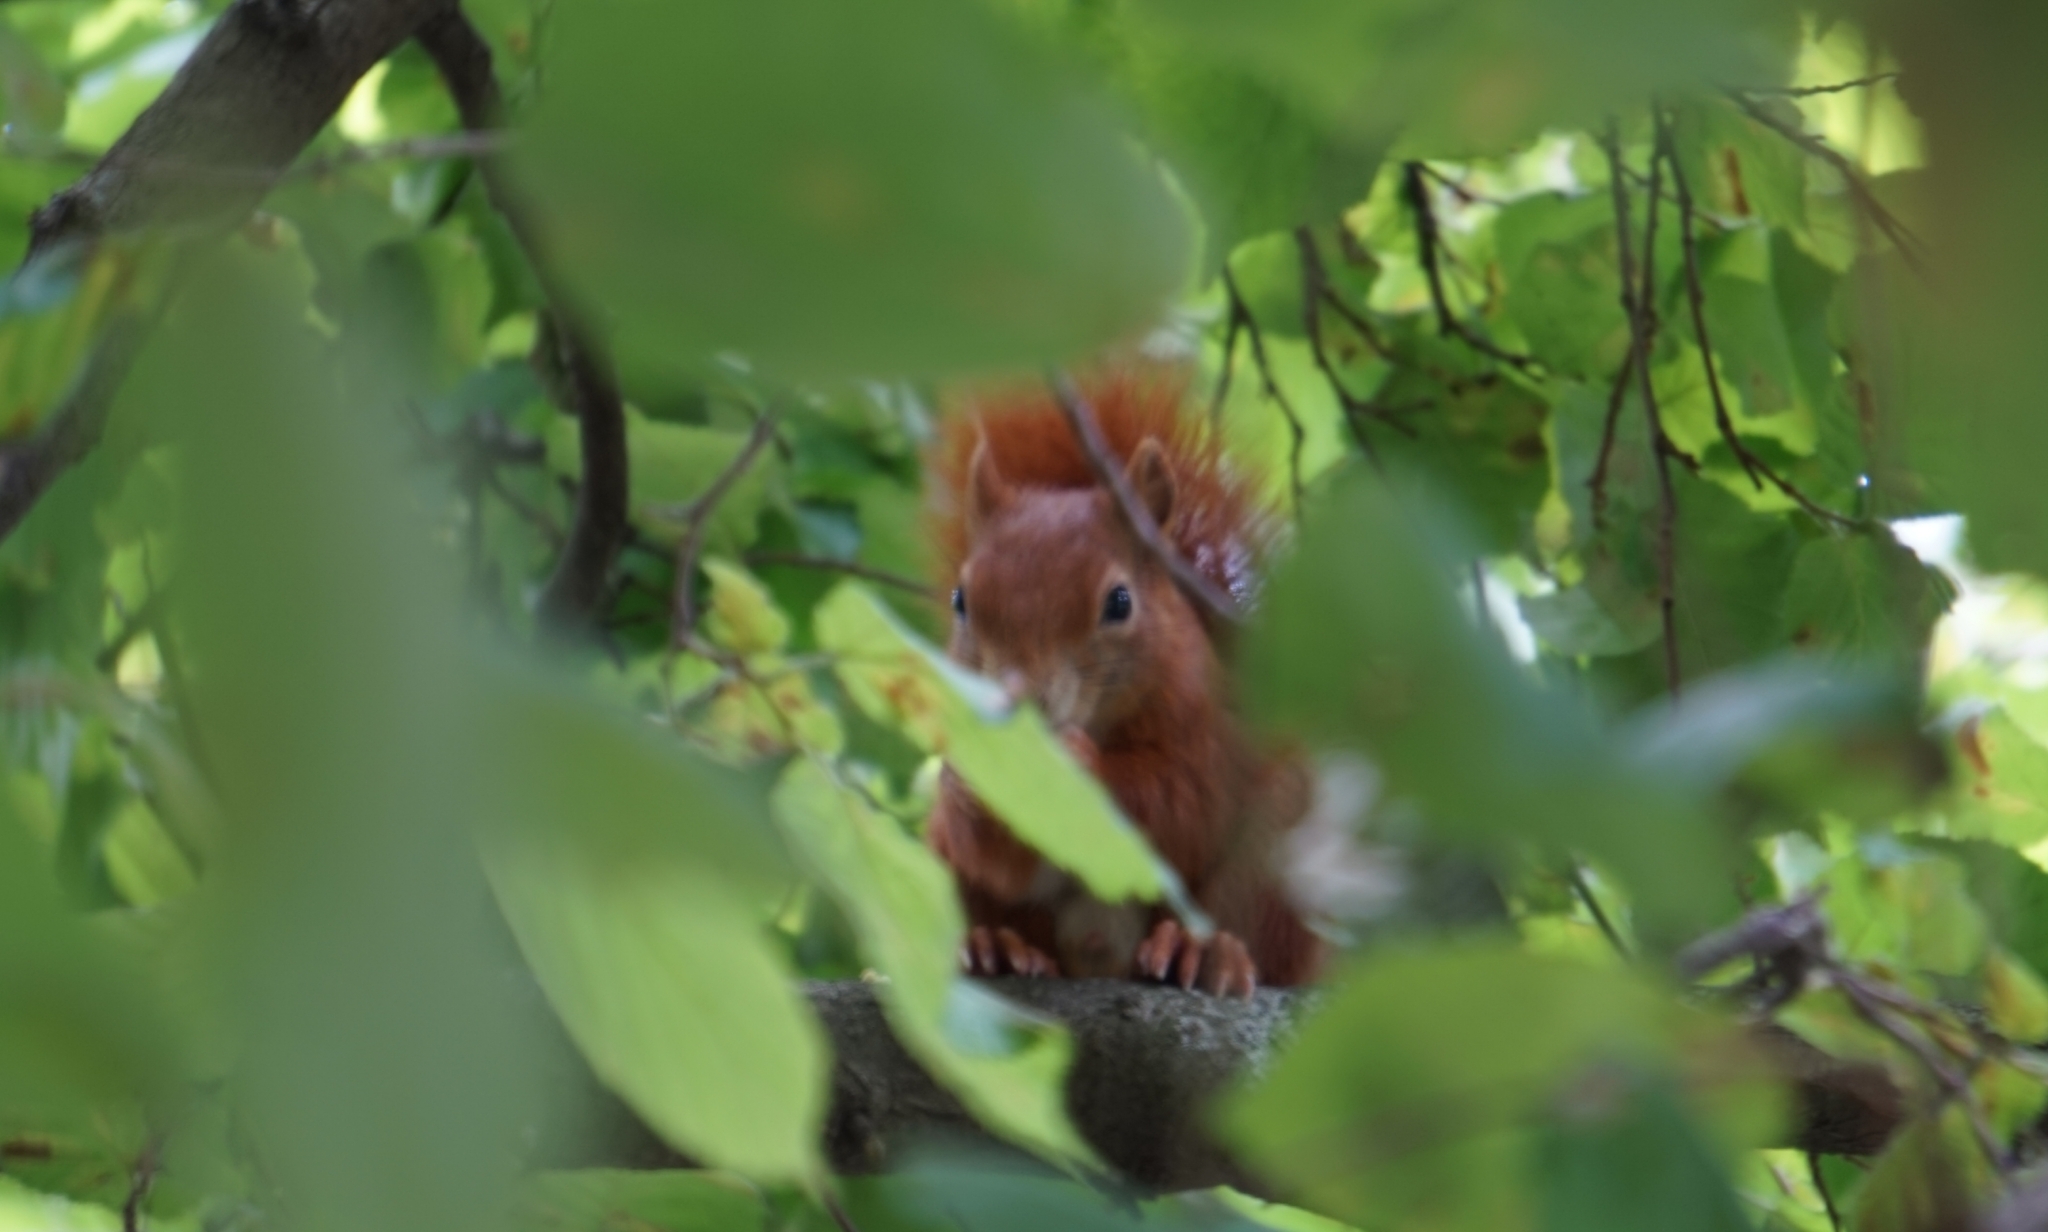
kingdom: Animalia
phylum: Chordata
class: Mammalia
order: Rodentia
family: Sciuridae
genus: Sciurus
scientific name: Sciurus vulgaris
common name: Eurasian red squirrel
